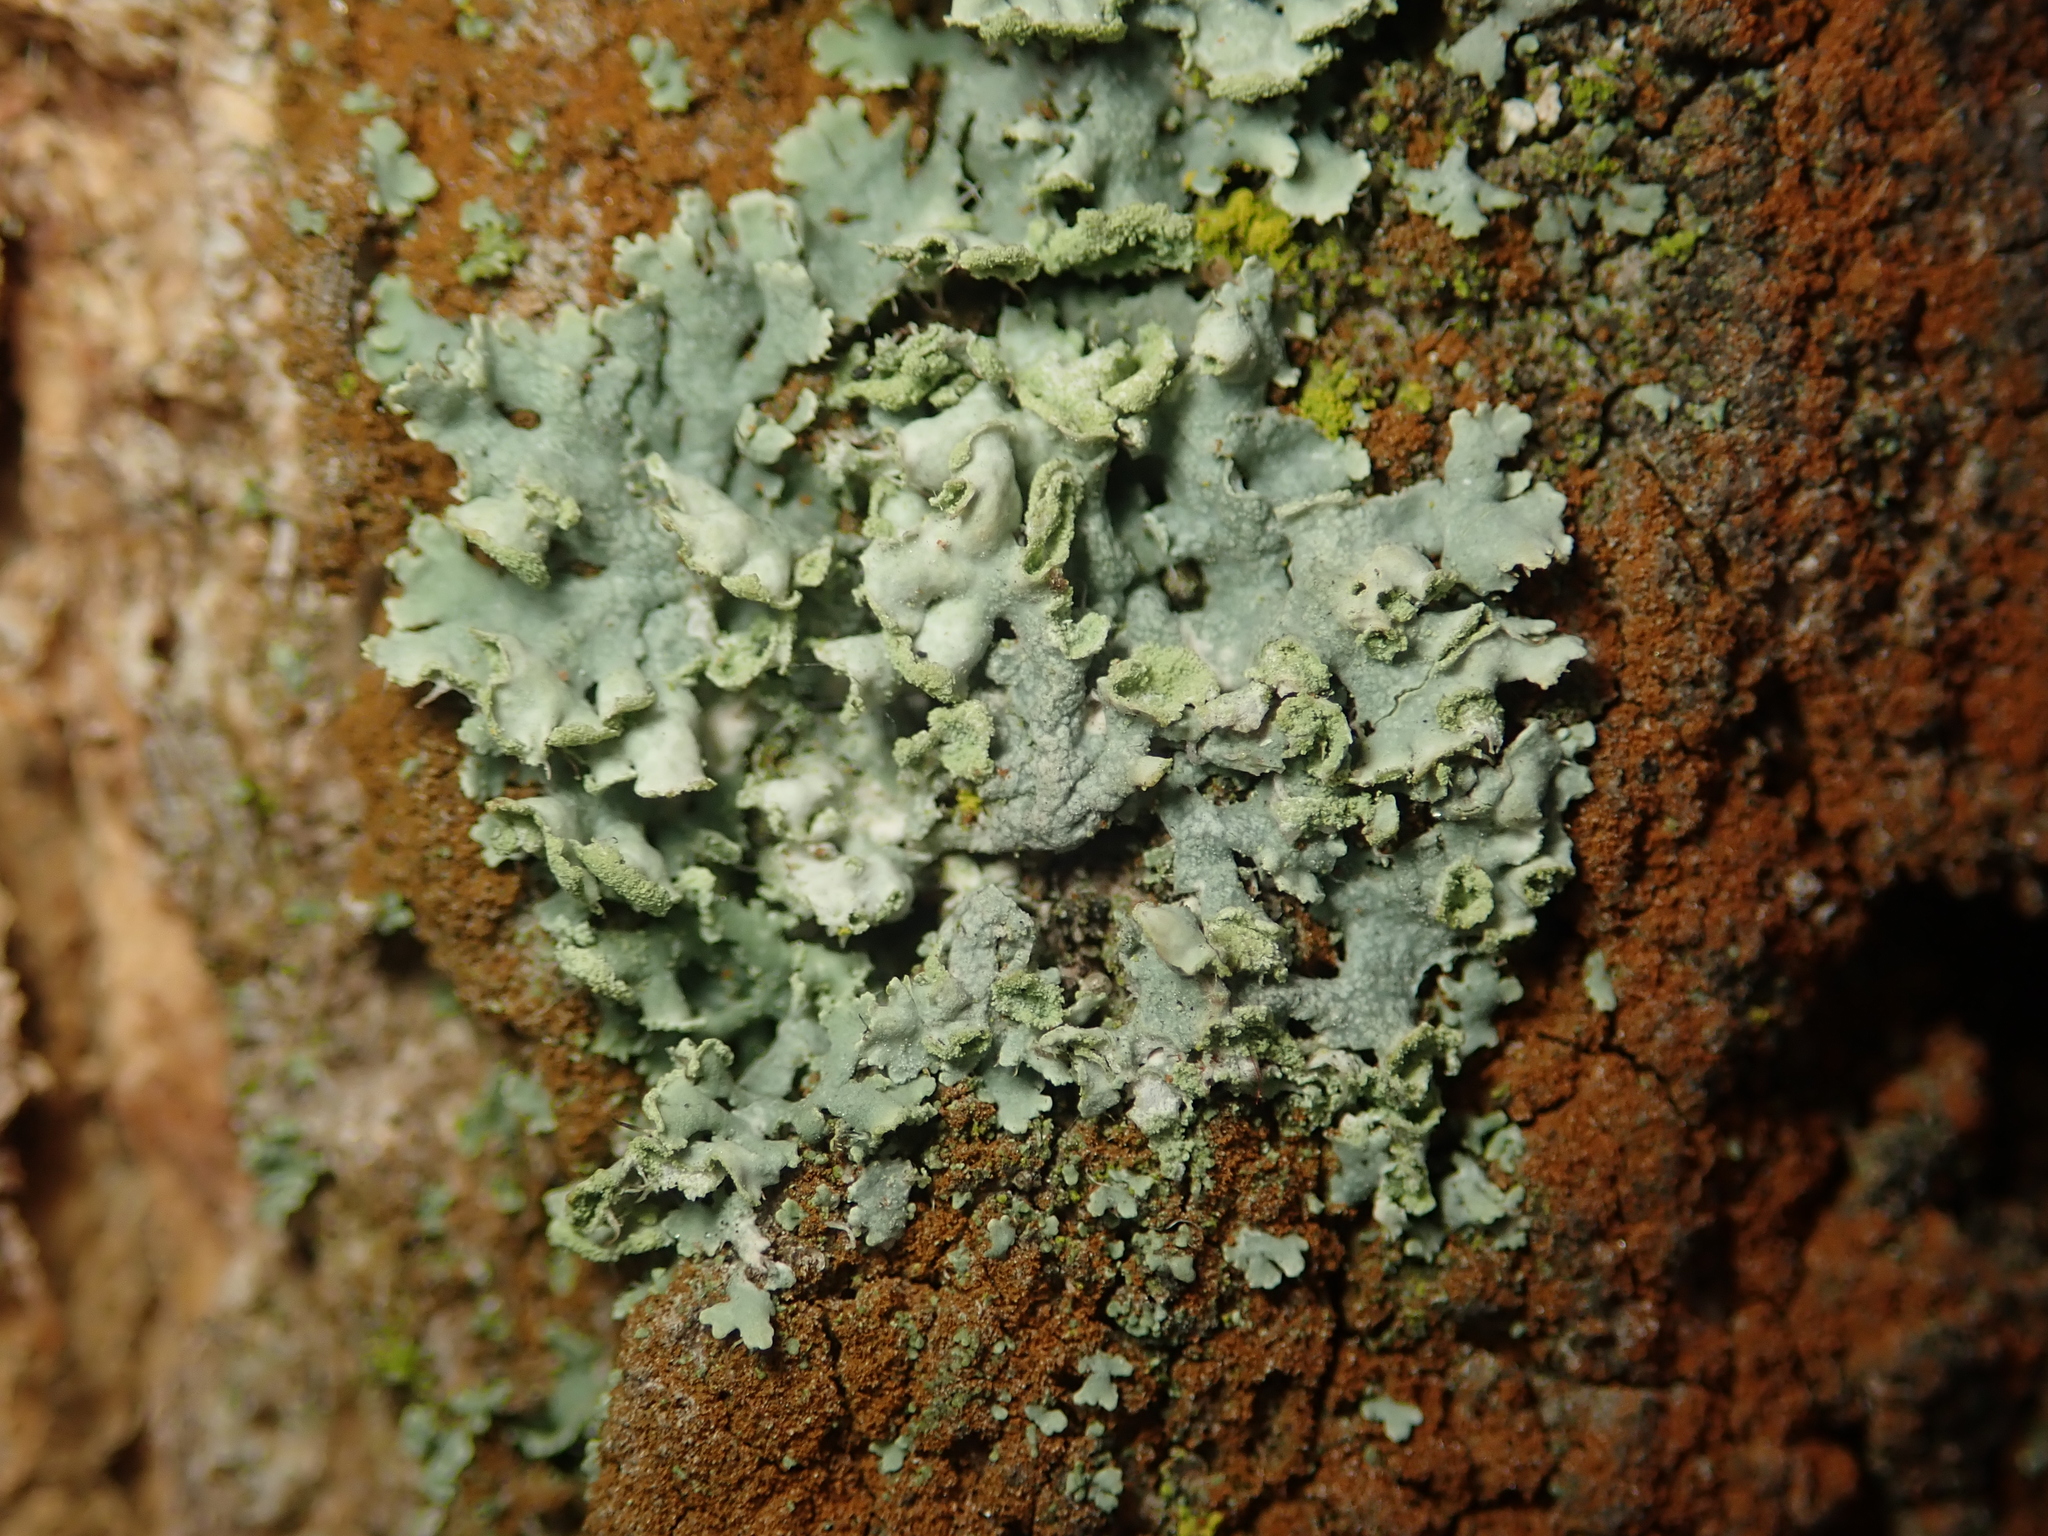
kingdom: Fungi
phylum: Ascomycota
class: Lecanoromycetes
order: Caliciales
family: Physciaceae
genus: Physcia
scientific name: Physcia adscendens
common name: Hooded rosette lichen
